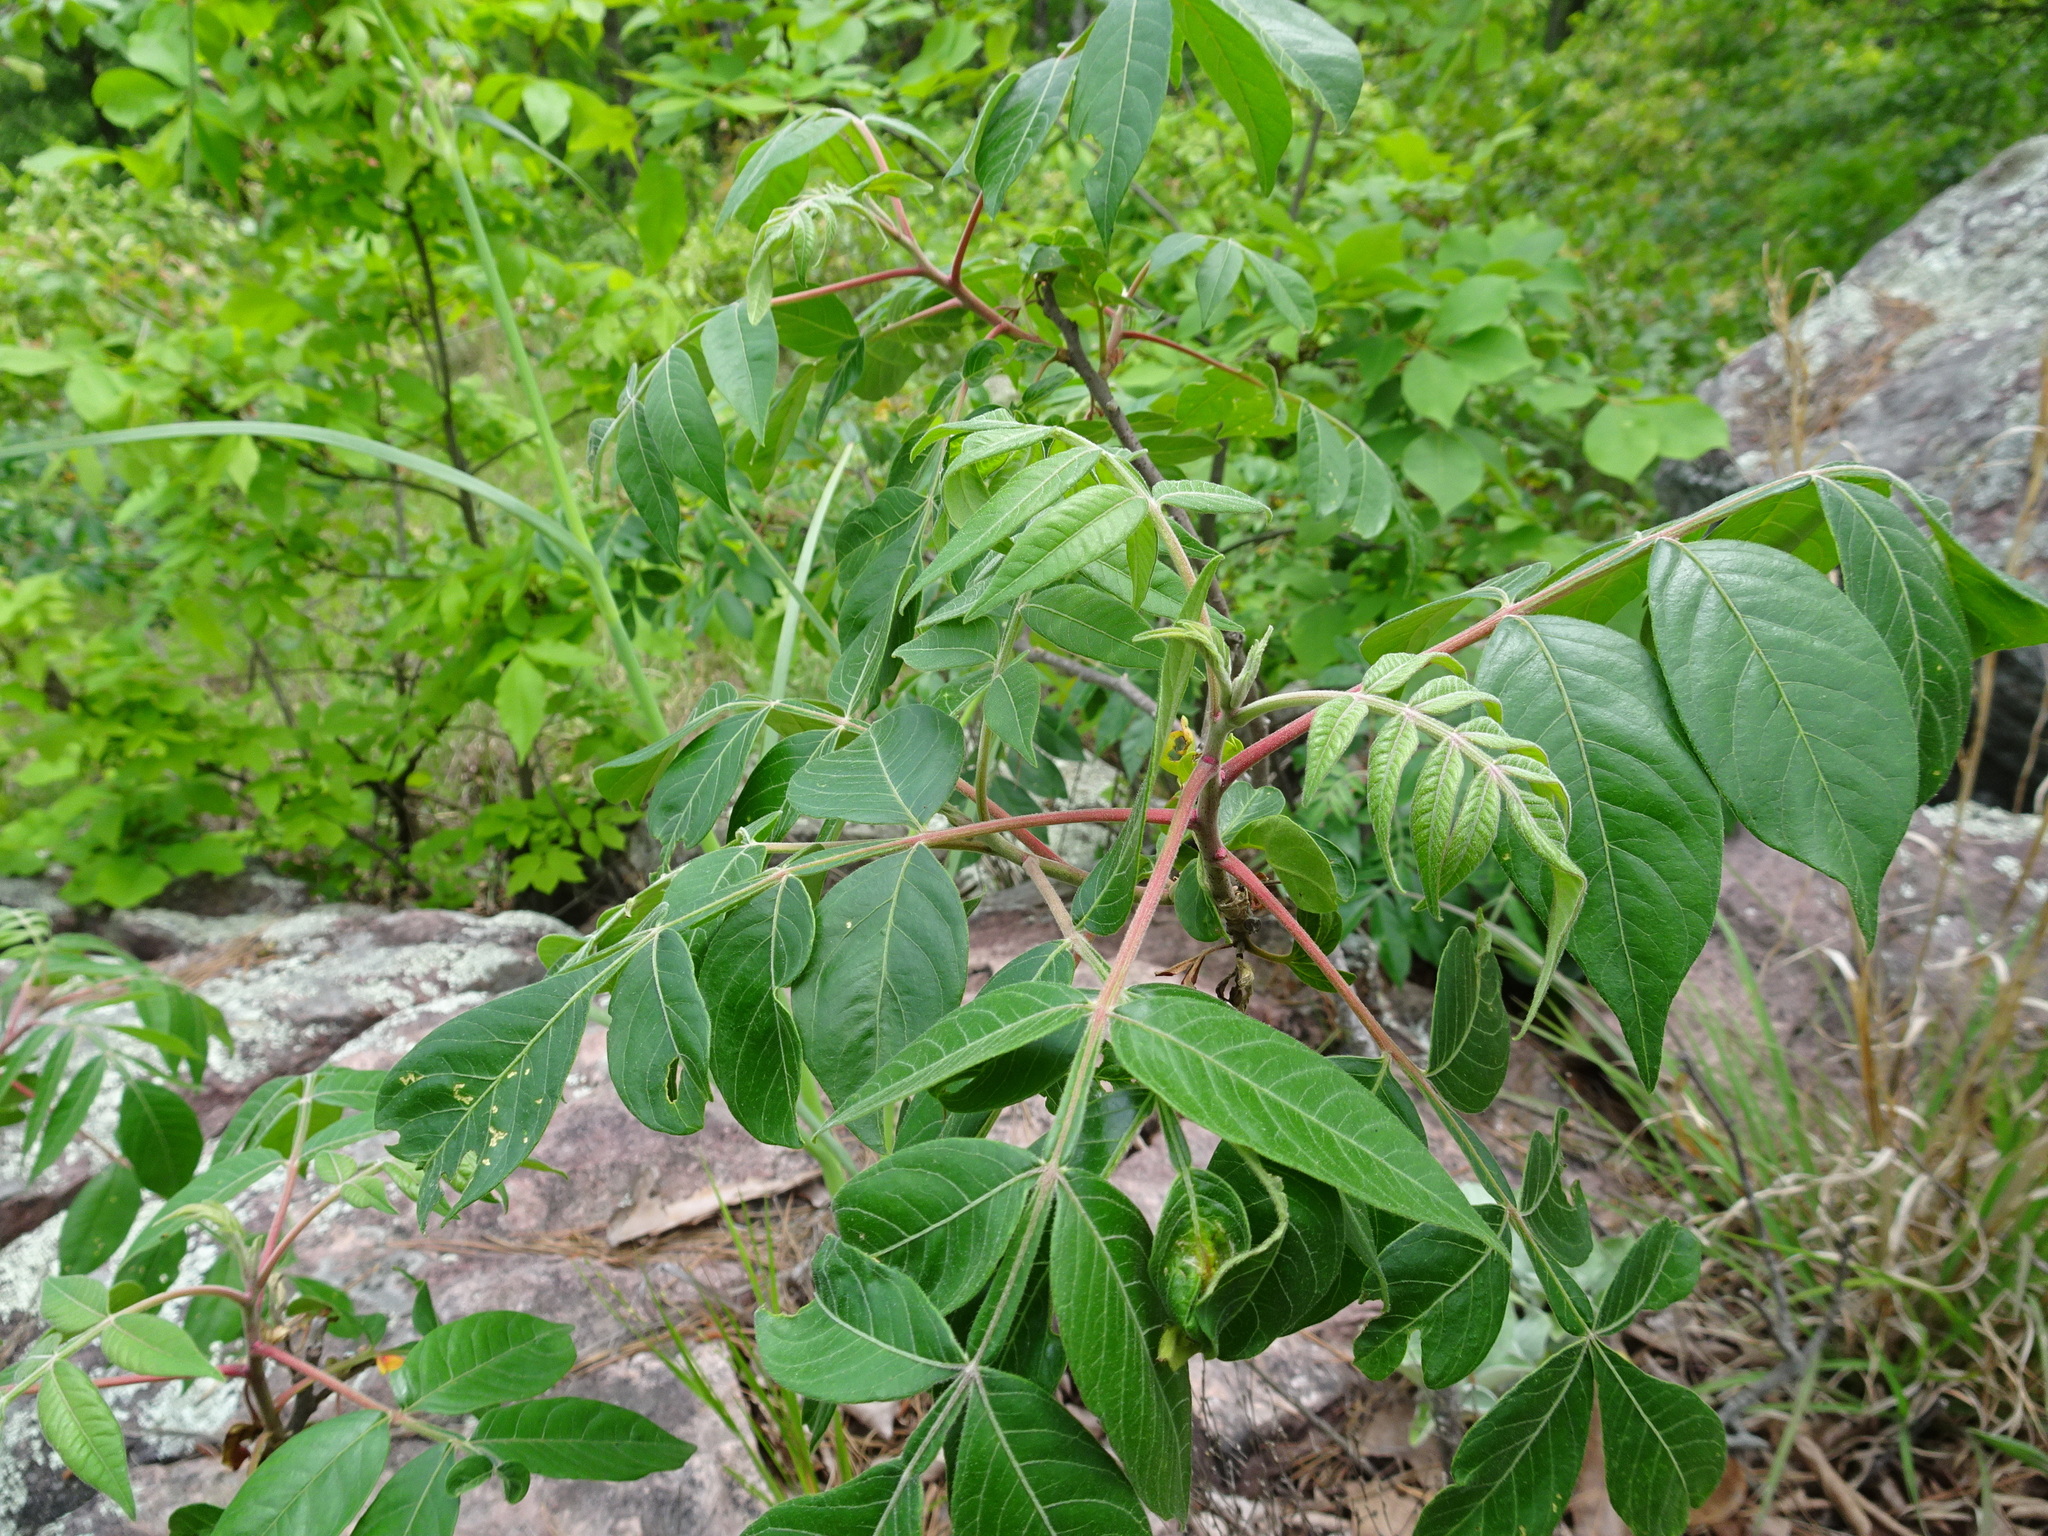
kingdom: Plantae
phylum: Tracheophyta
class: Magnoliopsida
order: Sapindales
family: Anacardiaceae
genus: Rhus
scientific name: Rhus copallina
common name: Shining sumac
